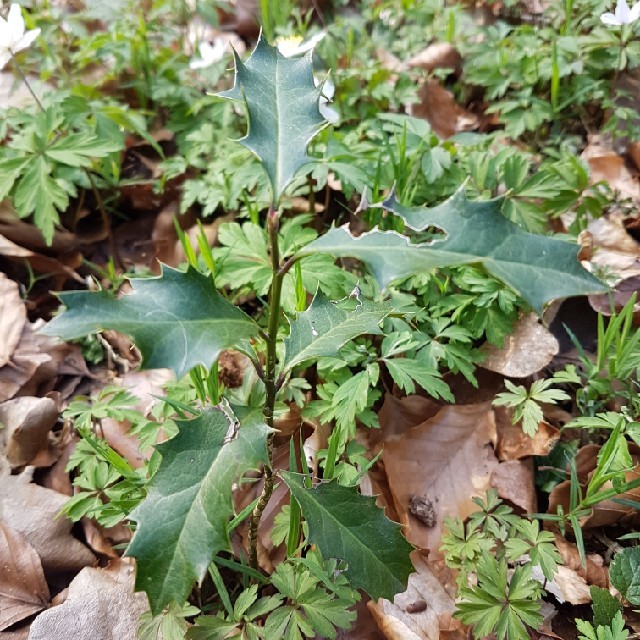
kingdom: Plantae
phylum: Tracheophyta
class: Magnoliopsida
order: Aquifoliales
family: Aquifoliaceae
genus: Ilex
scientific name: Ilex aquifolium
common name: English holly
